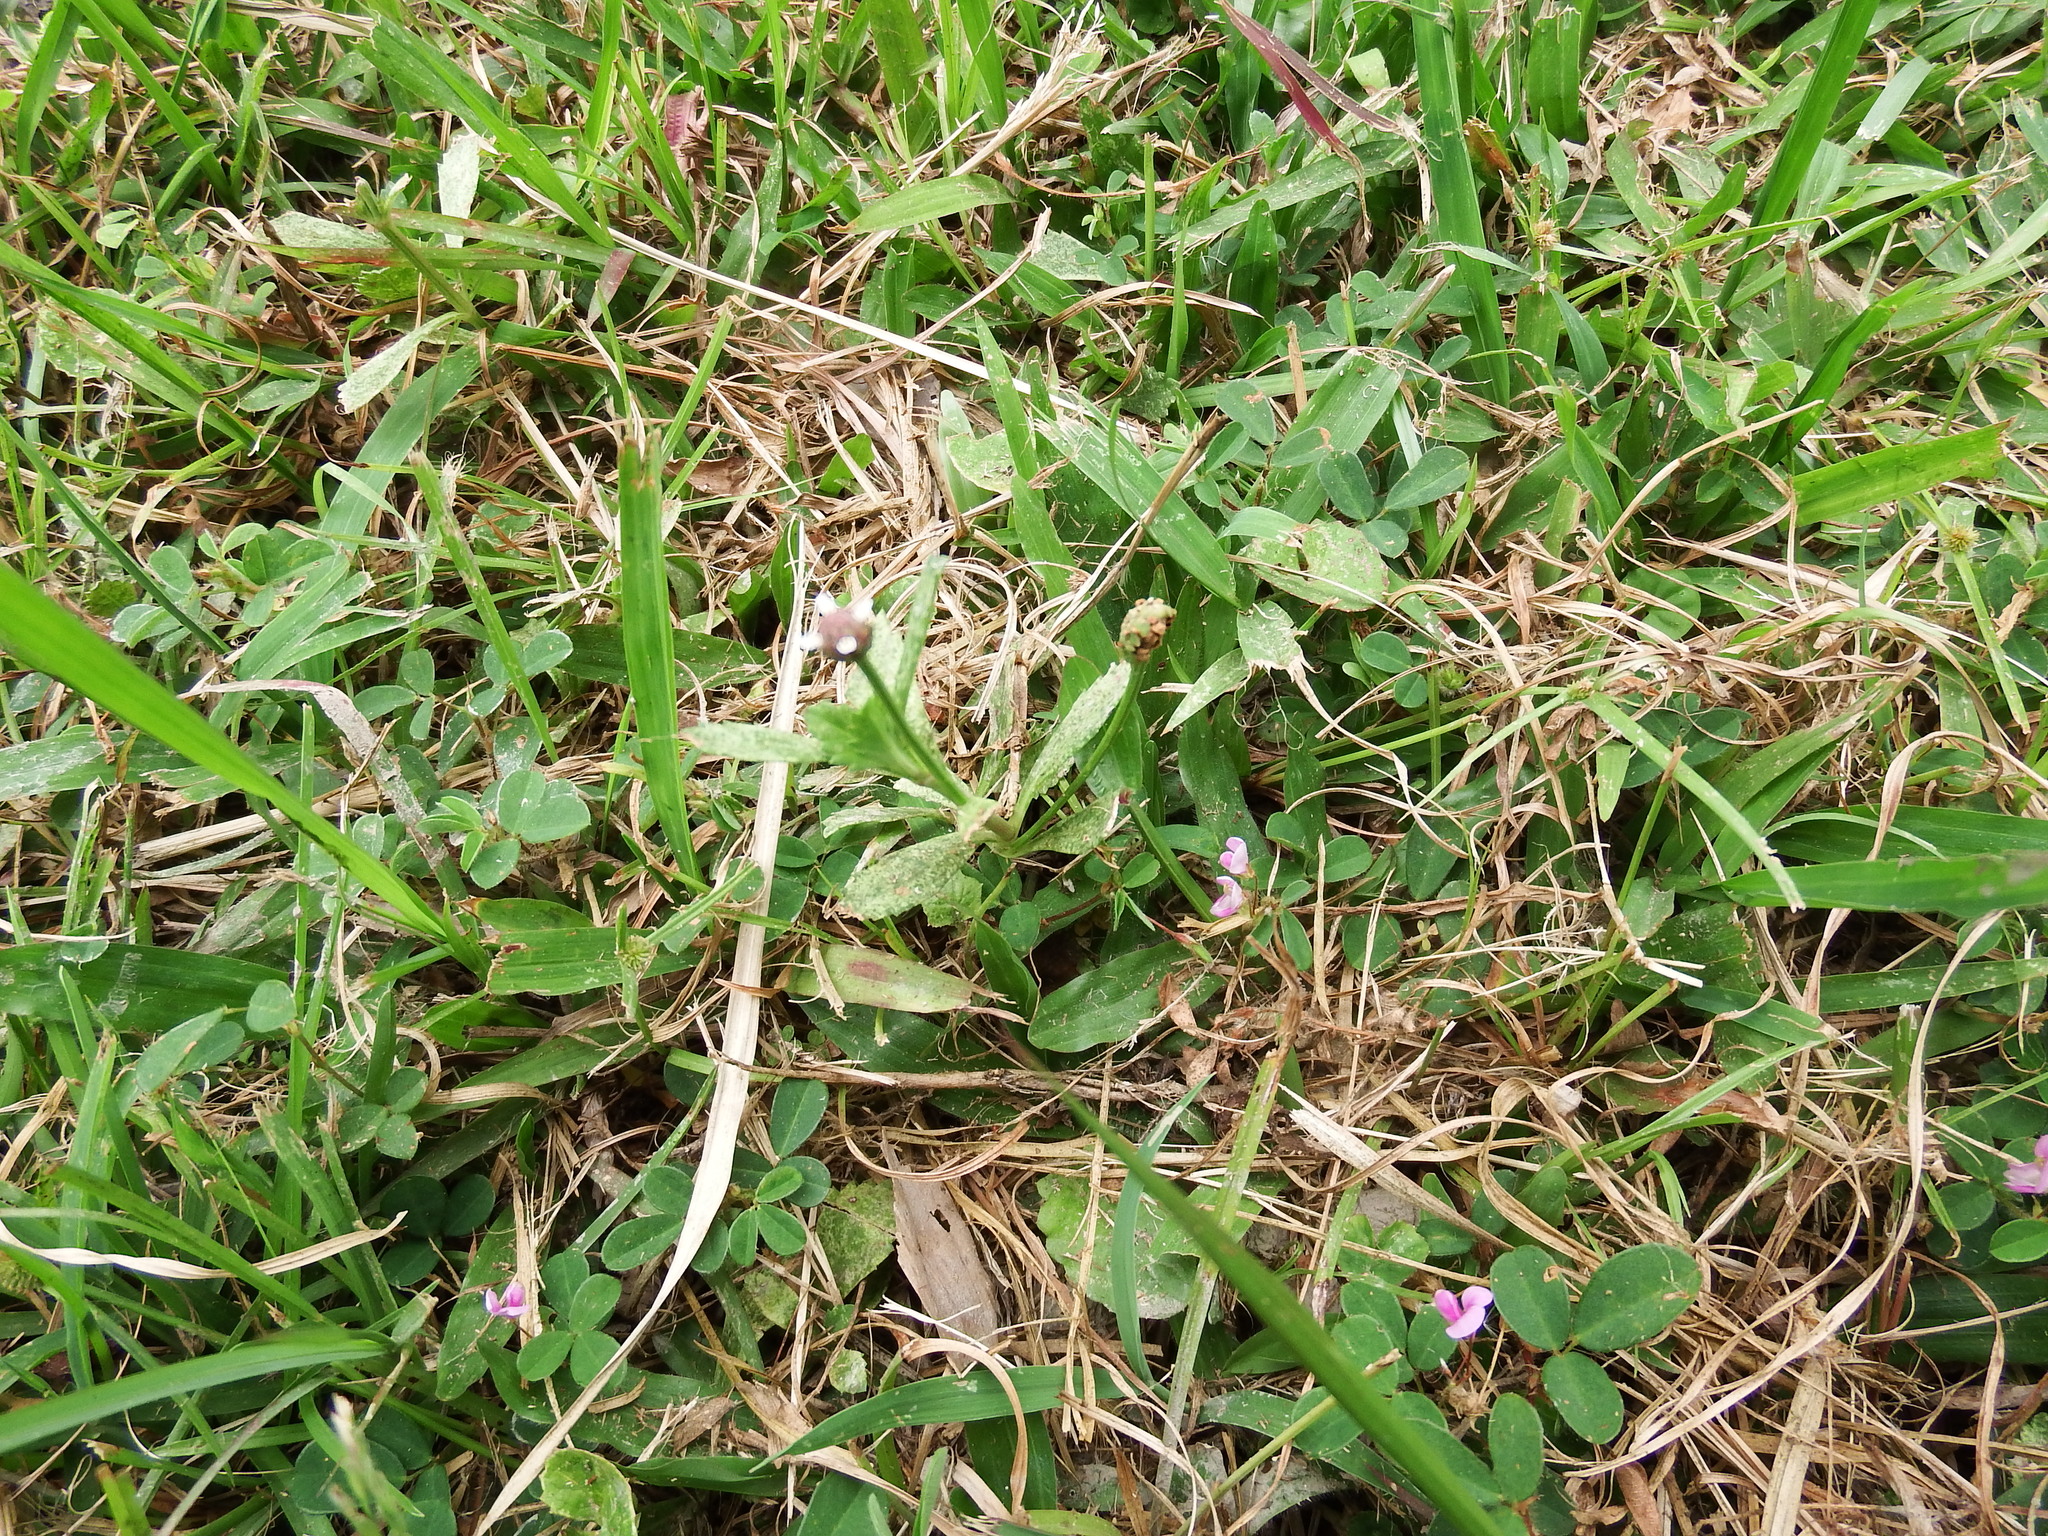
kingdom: Plantae
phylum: Tracheophyta
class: Magnoliopsida
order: Lamiales
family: Verbenaceae
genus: Phyla
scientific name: Phyla nodiflora
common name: Frogfruit
